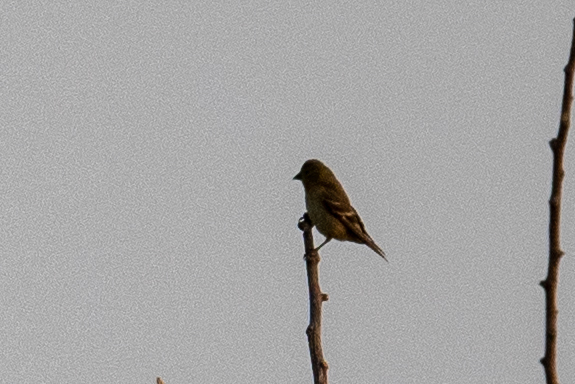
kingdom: Animalia
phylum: Chordata
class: Aves
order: Passeriformes
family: Fringillidae
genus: Spinus
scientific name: Spinus psaltria
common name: Lesser goldfinch
